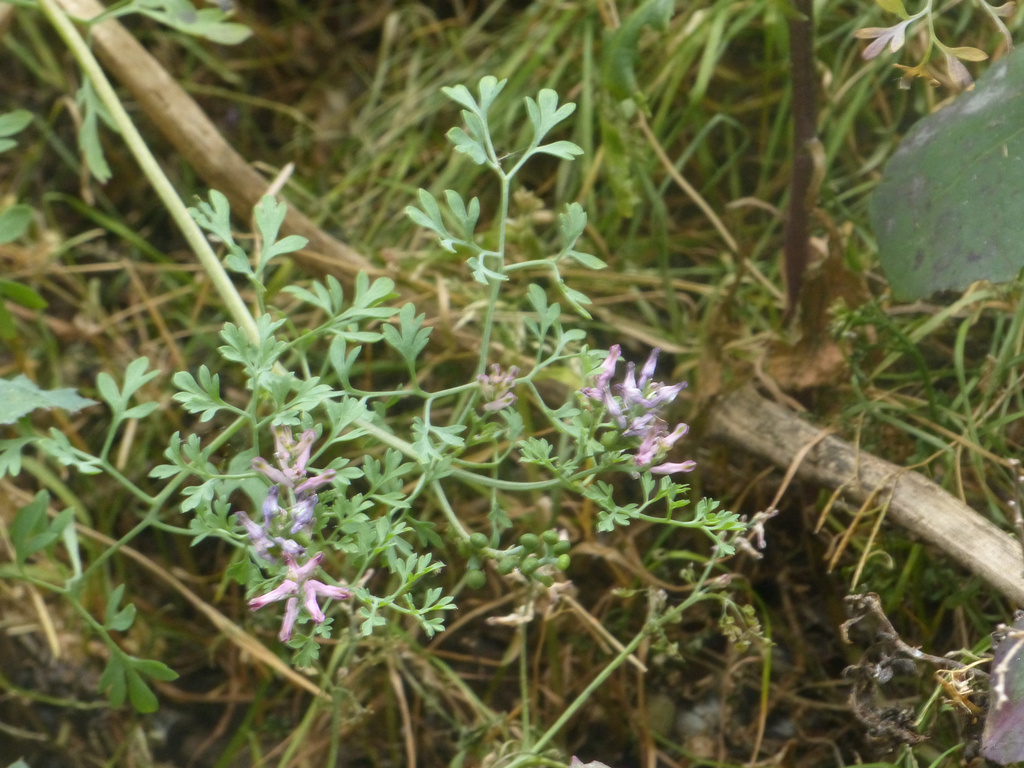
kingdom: Plantae
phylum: Tracheophyta
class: Magnoliopsida
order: Ranunculales
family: Papaveraceae
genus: Fumaria
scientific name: Fumaria officinalis
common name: Common fumitory
